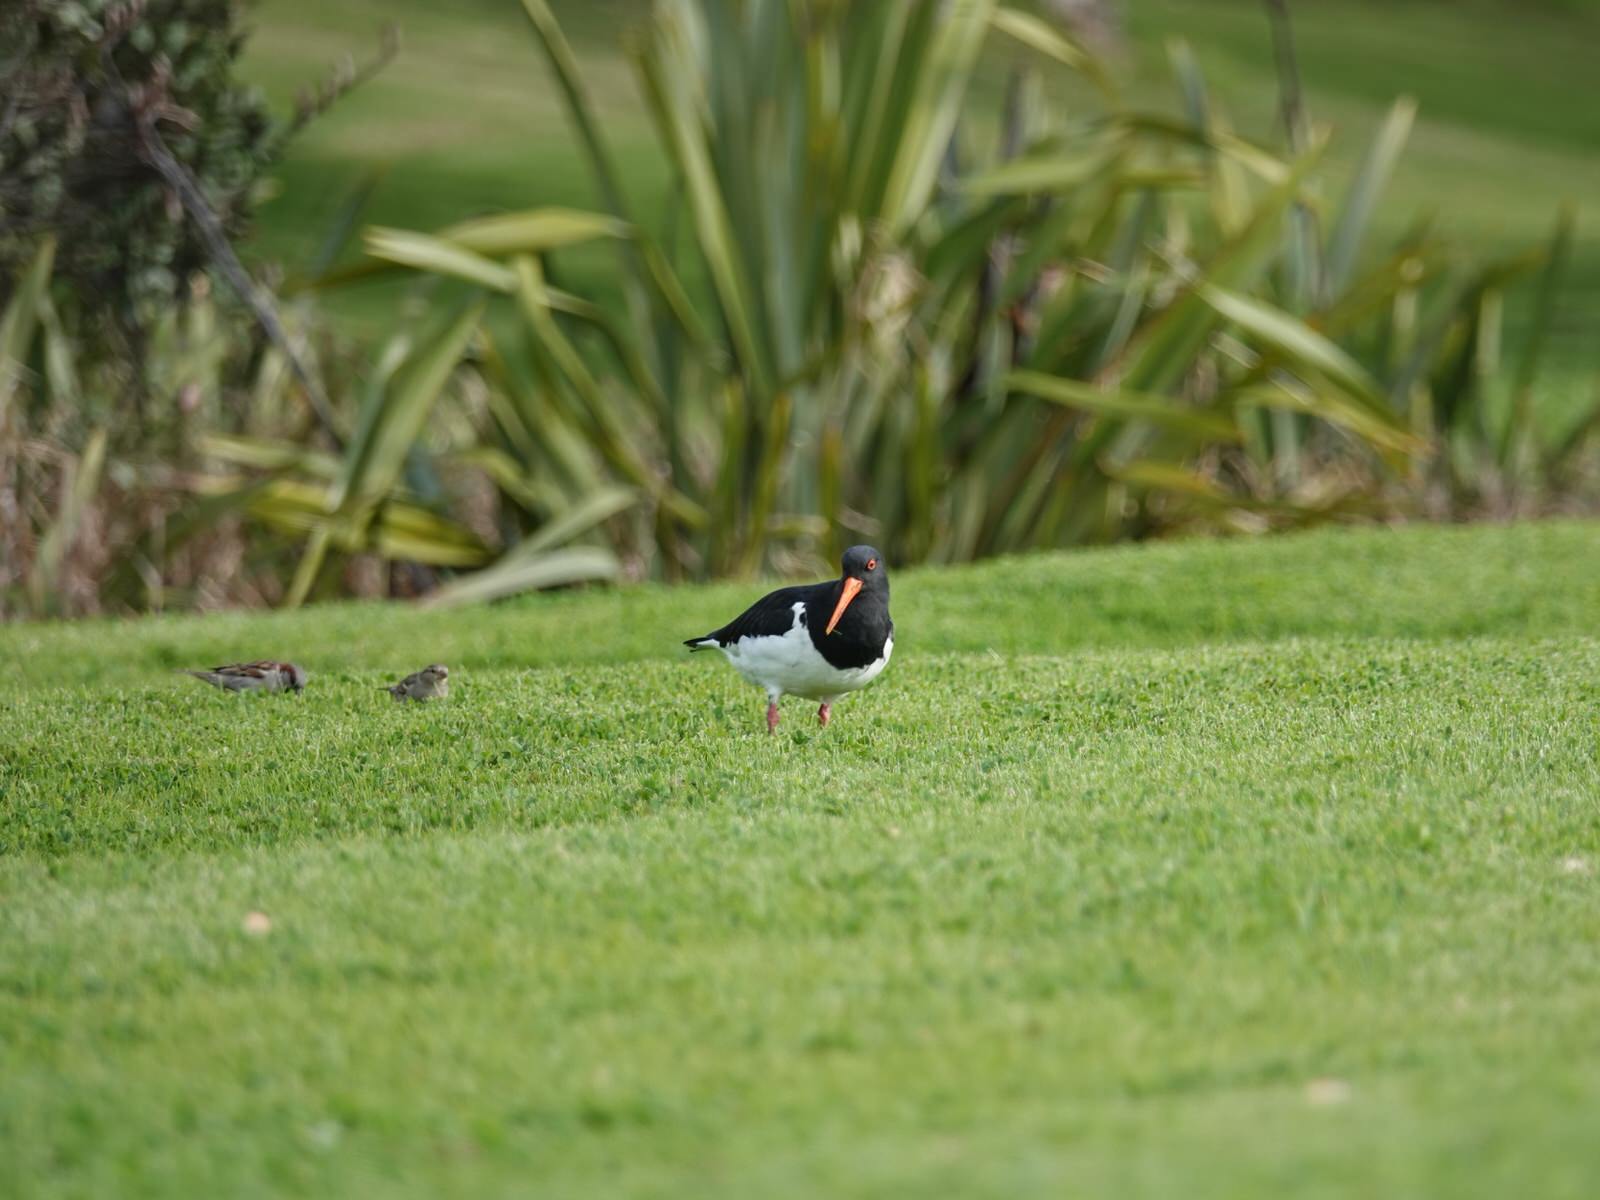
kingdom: Animalia
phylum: Chordata
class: Aves
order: Charadriiformes
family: Haematopodidae
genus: Haematopus
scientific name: Haematopus unicolor
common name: Variable oystercatcher
